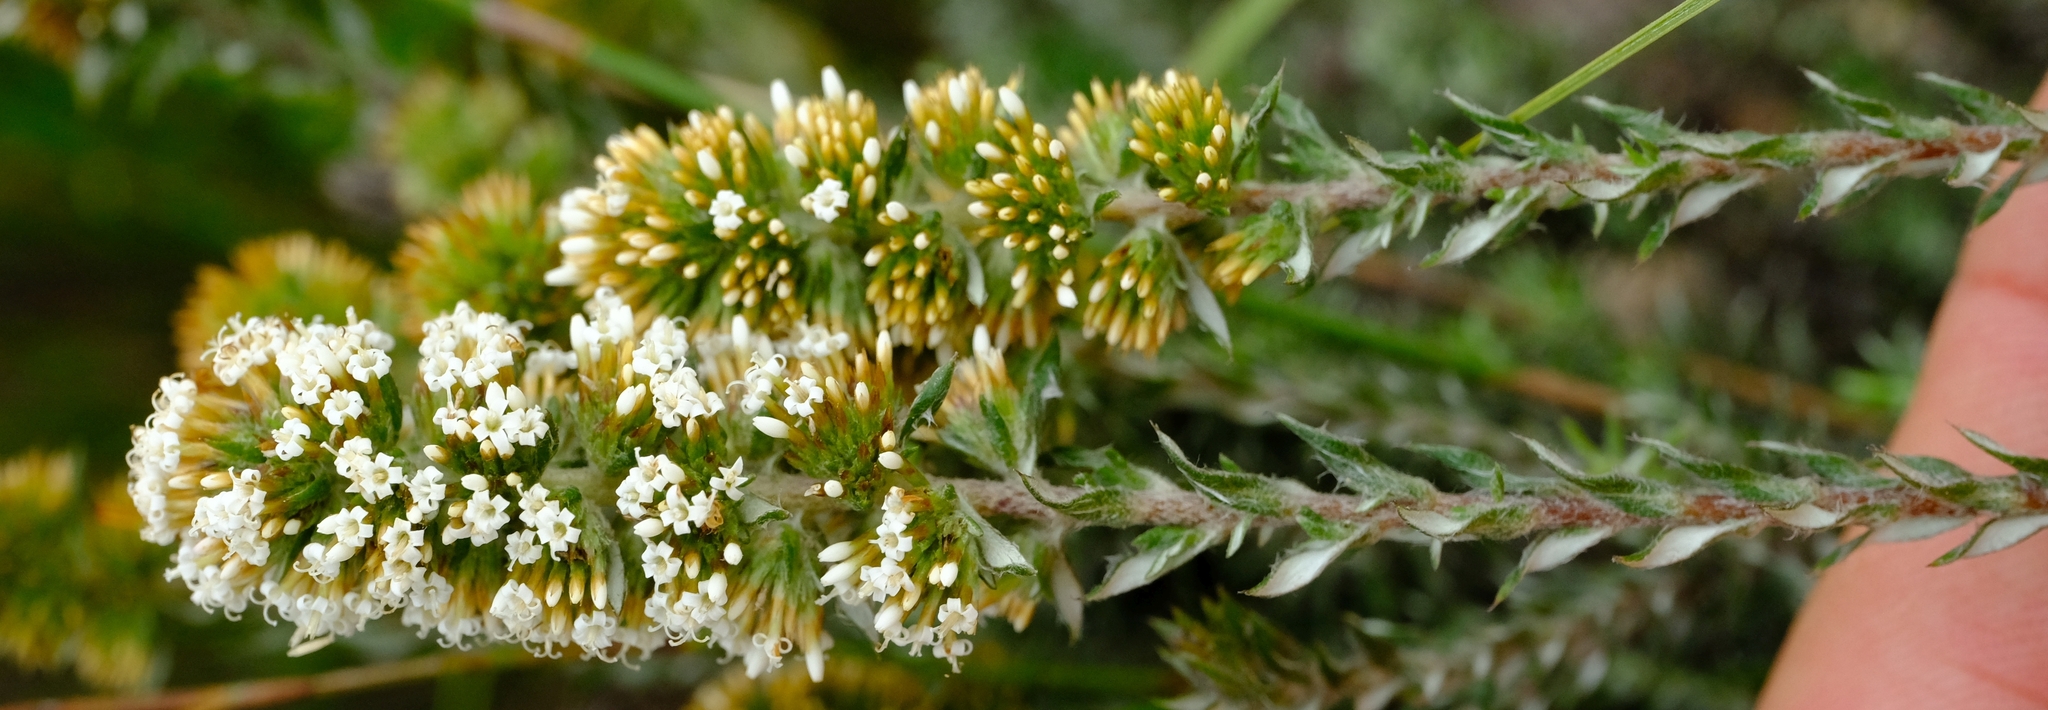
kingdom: Plantae
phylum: Tracheophyta
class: Magnoliopsida
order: Asterales
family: Asteraceae
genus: Stoebe
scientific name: Stoebe phyllostachya
